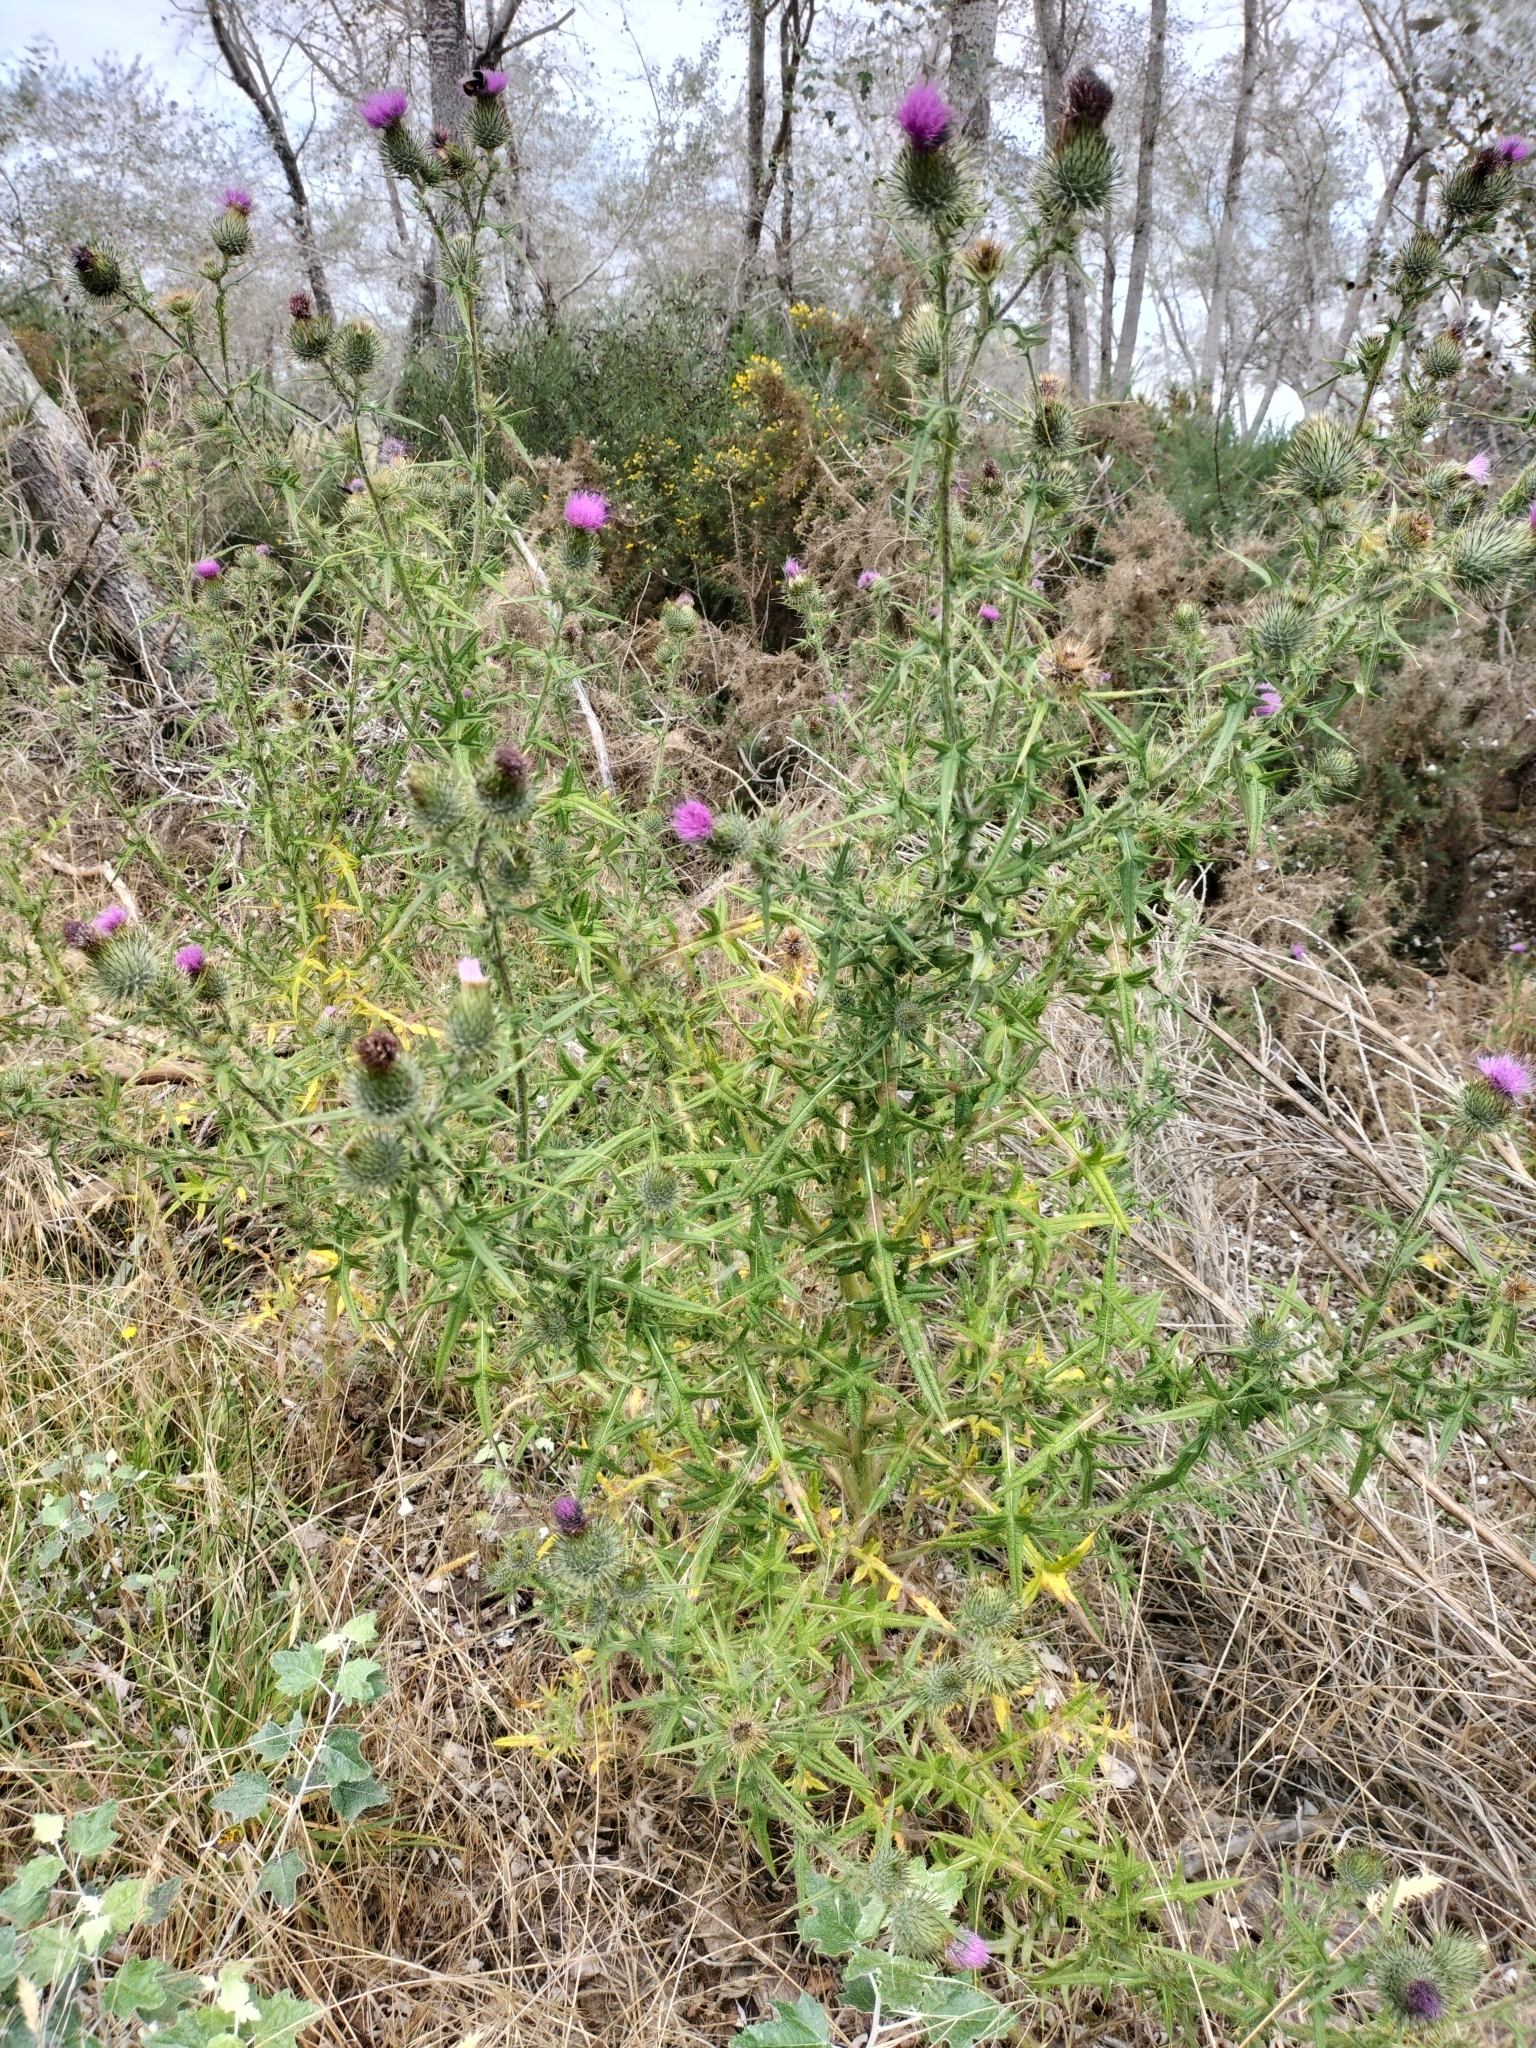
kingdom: Plantae
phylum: Tracheophyta
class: Magnoliopsida
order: Asterales
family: Asteraceae
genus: Cirsium
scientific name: Cirsium vulgare
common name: Bull thistle
